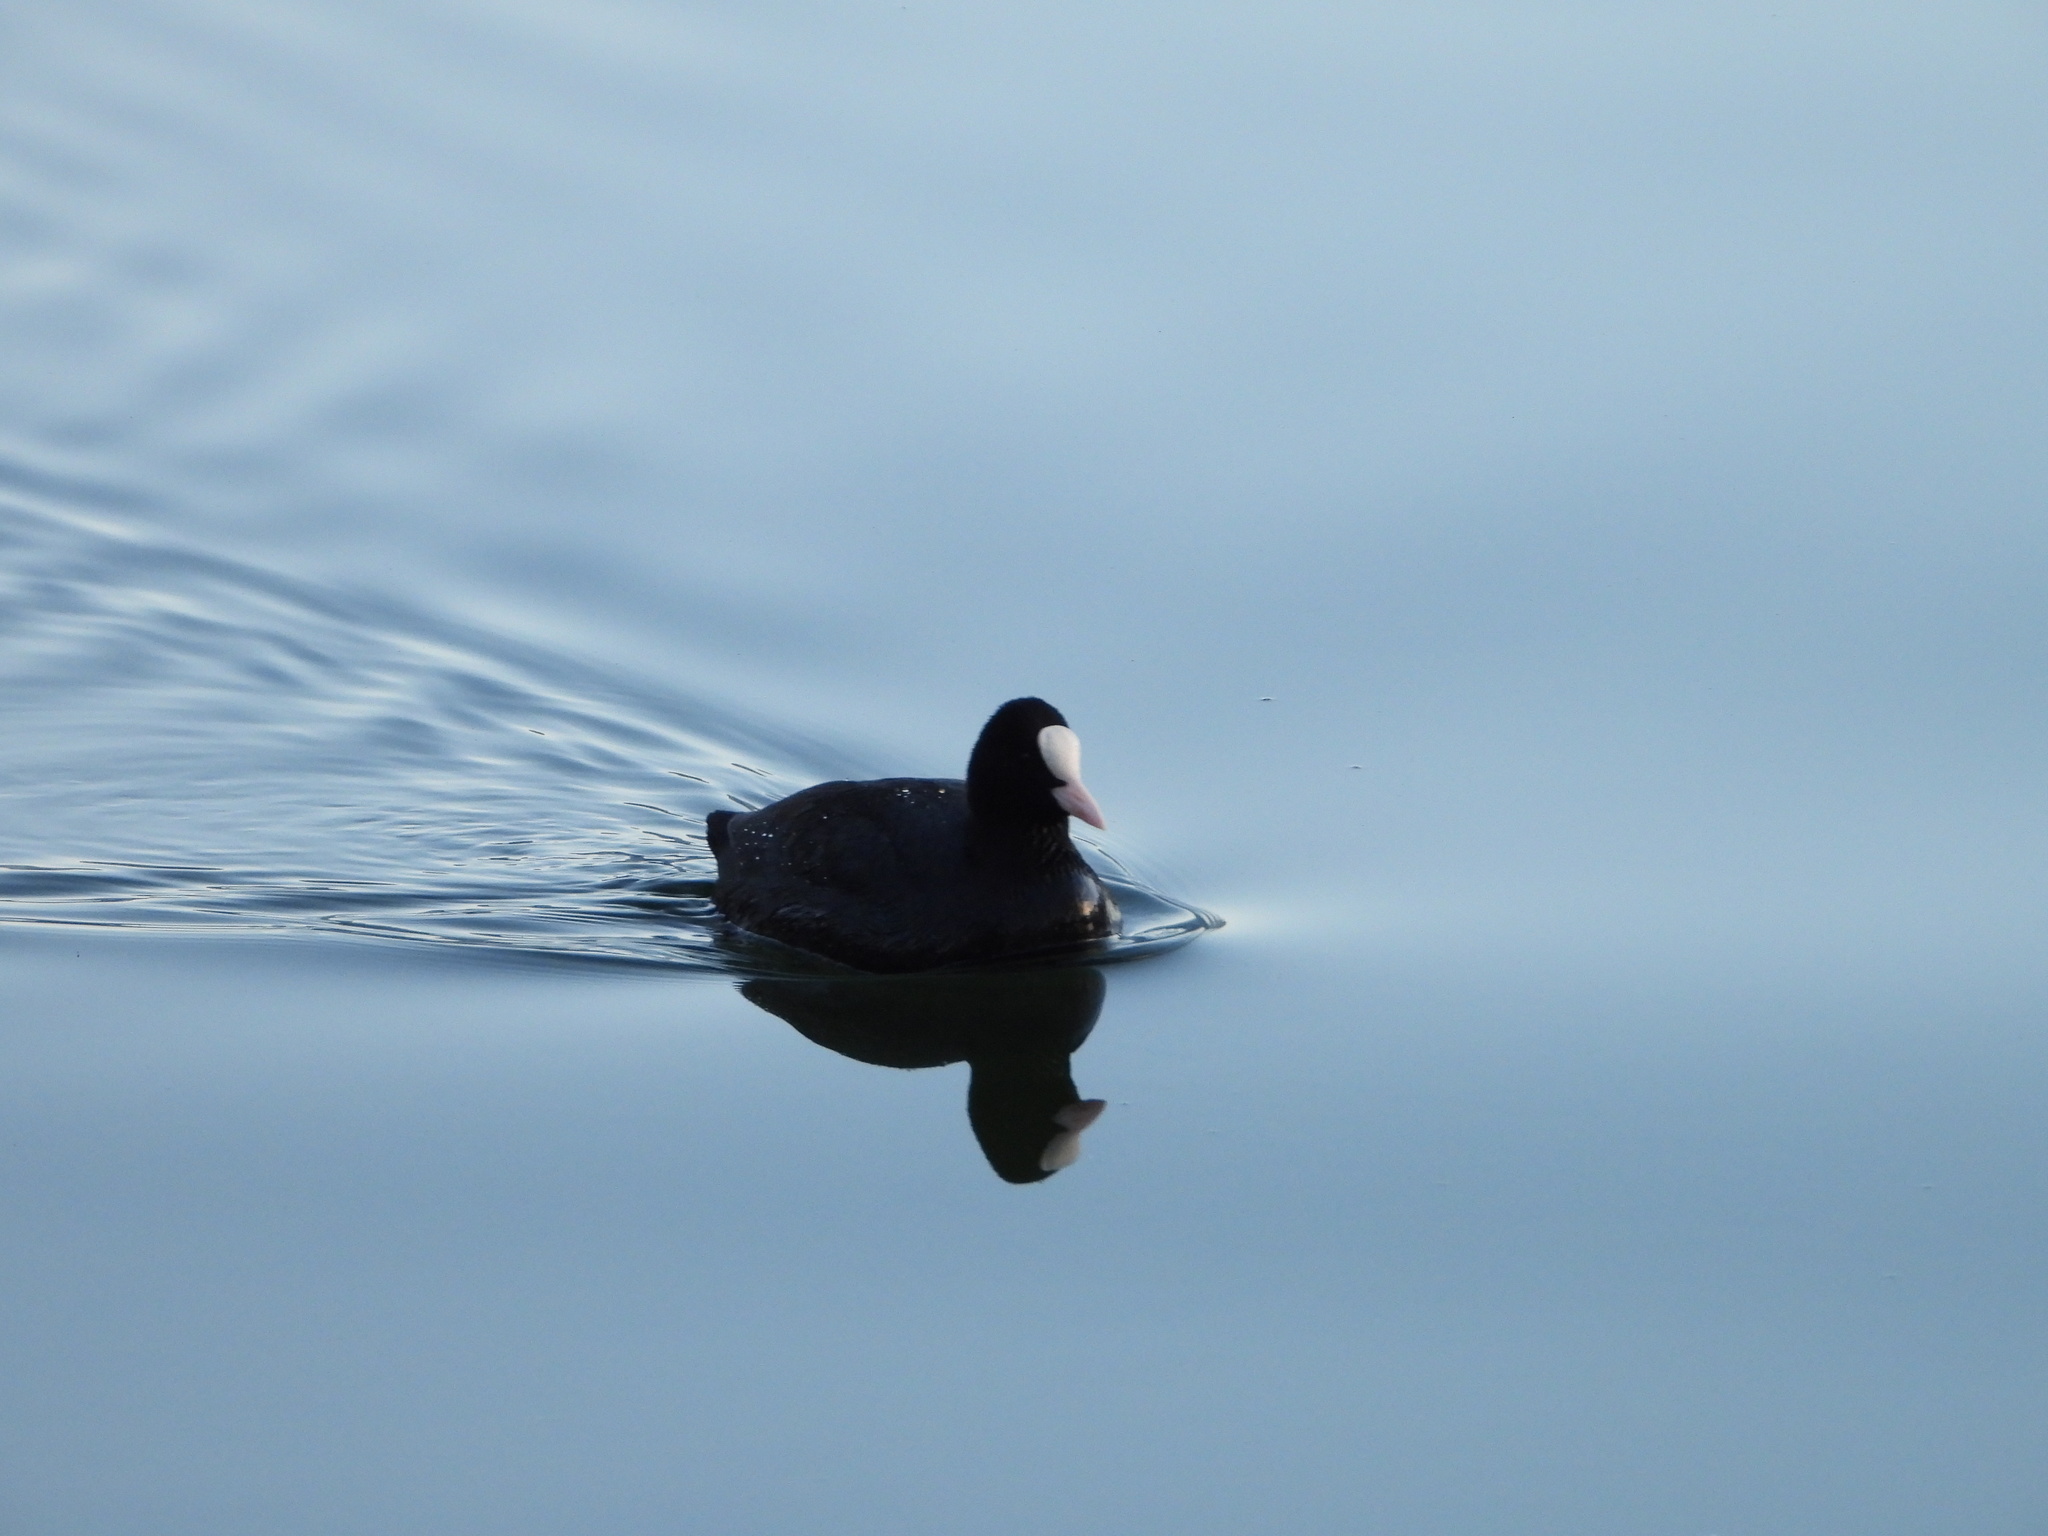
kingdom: Animalia
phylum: Chordata
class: Aves
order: Gruiformes
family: Rallidae
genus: Fulica
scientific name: Fulica atra
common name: Eurasian coot
